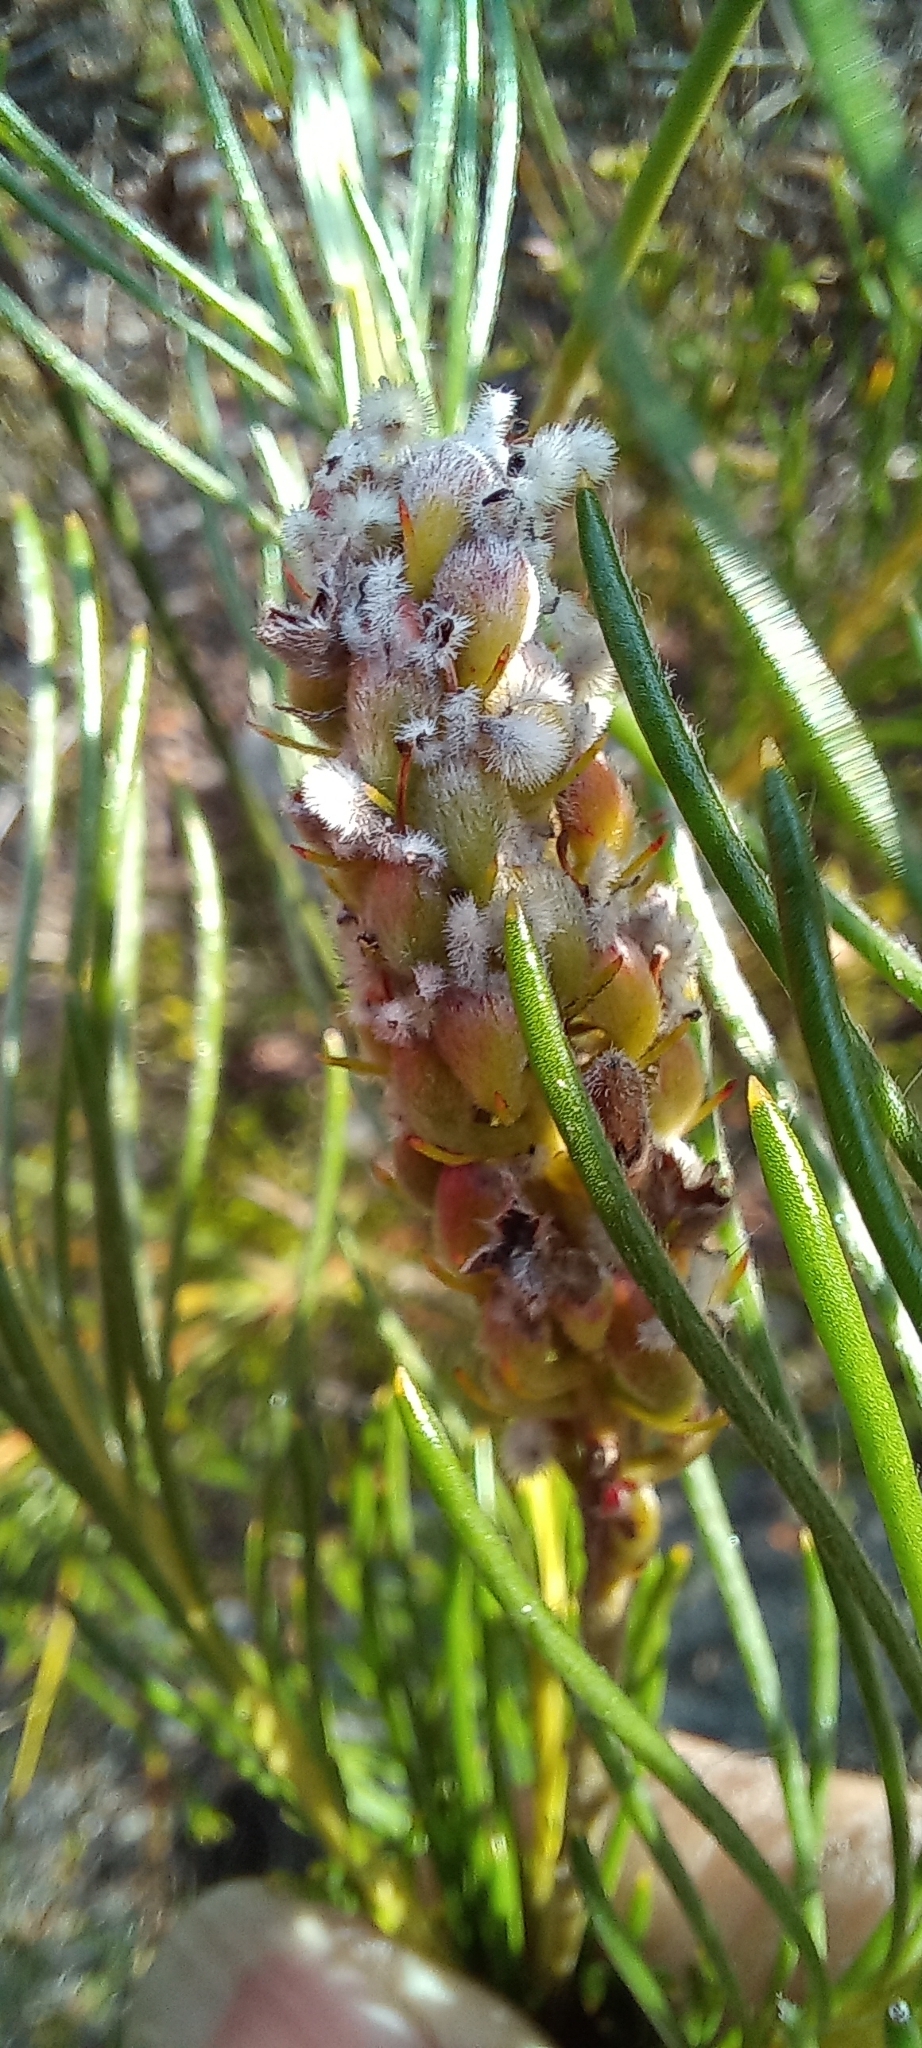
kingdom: Plantae
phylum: Tracheophyta
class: Magnoliopsida
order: Proteales
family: Proteaceae
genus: Spatalla
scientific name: Spatalla curvifolia
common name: White-stalked spoon
